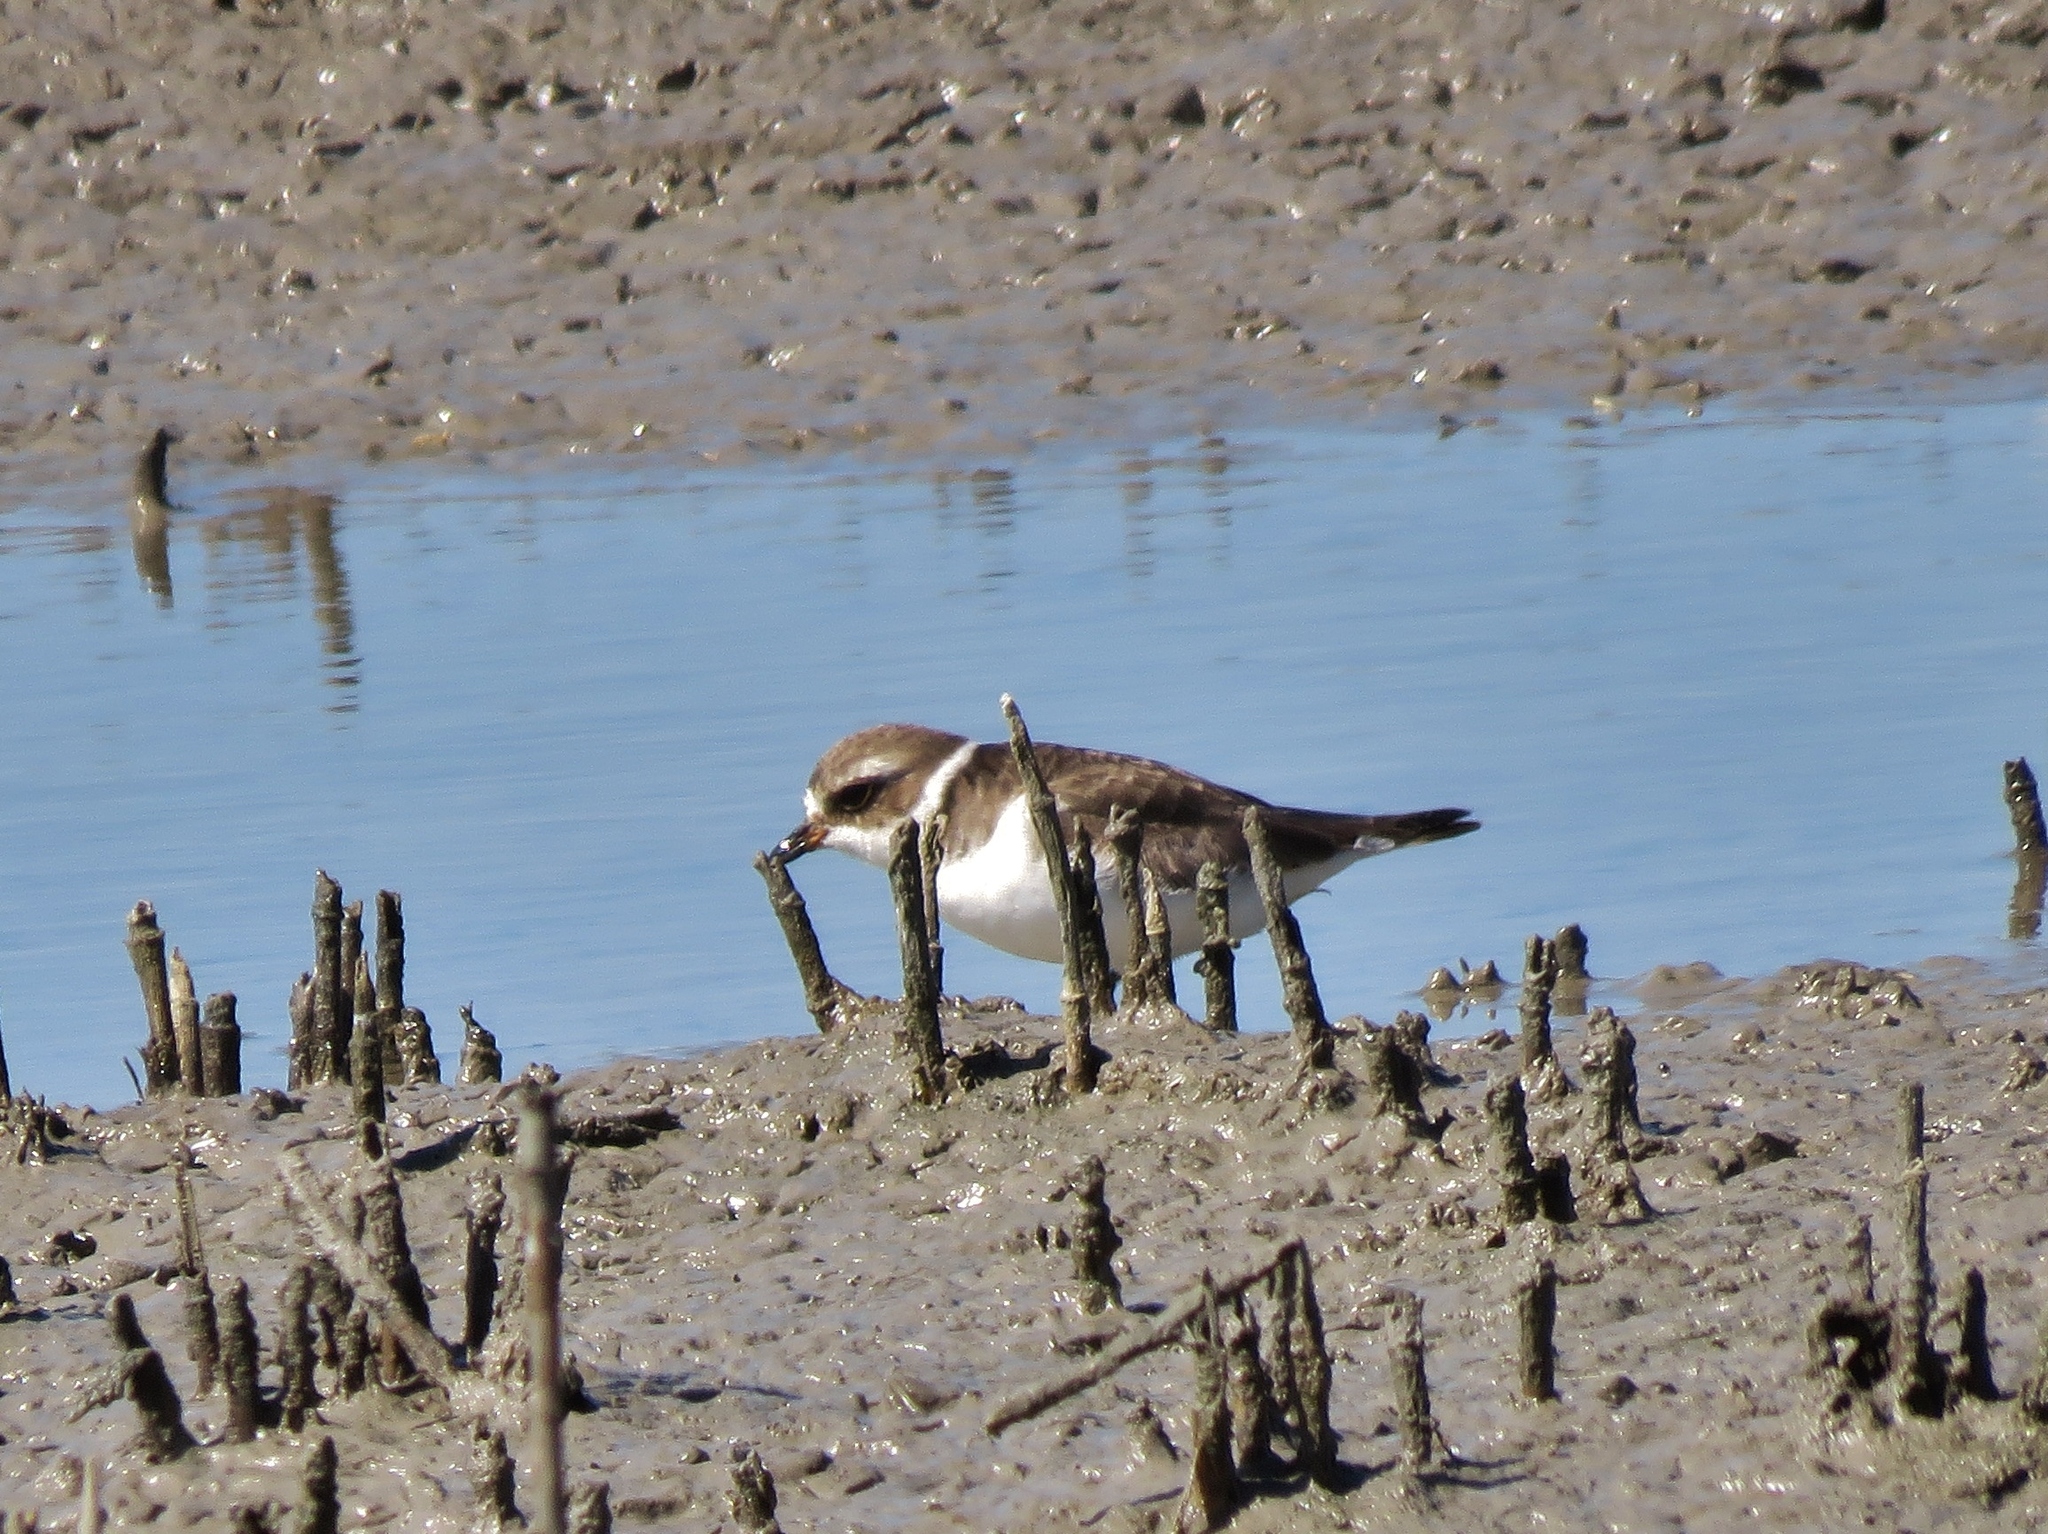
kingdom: Animalia
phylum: Chordata
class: Aves
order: Charadriiformes
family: Charadriidae
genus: Charadrius
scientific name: Charadrius semipalmatus
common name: Semipalmated plover
